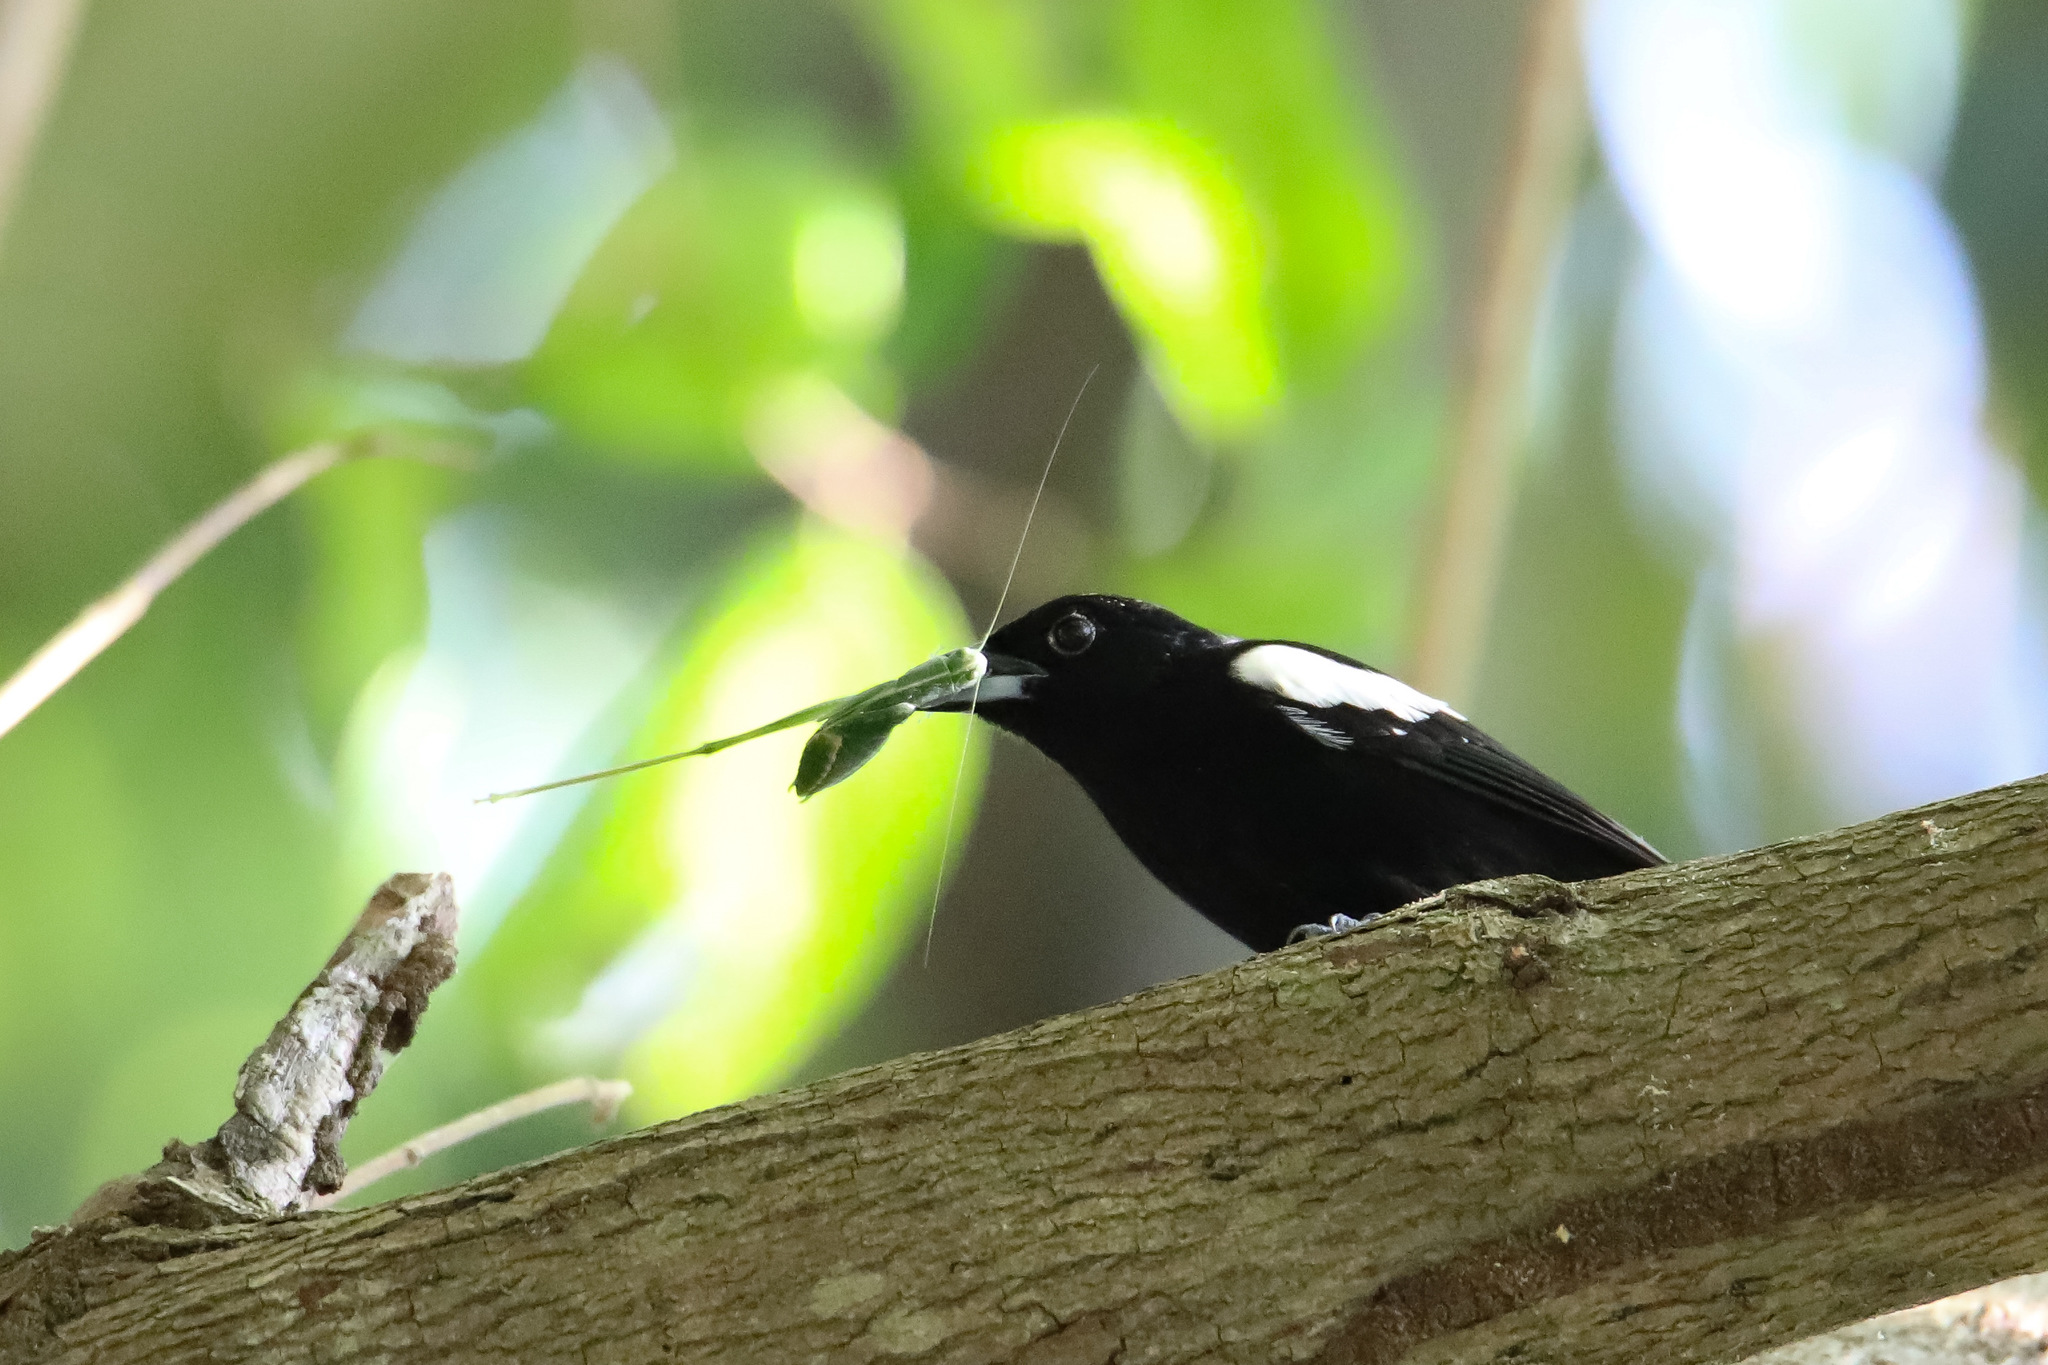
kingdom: Animalia
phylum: Chordata
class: Aves
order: Passeriformes
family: Thraupidae
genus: Loriotus
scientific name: Loriotus luctuosus
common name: White-shouldered tanager
